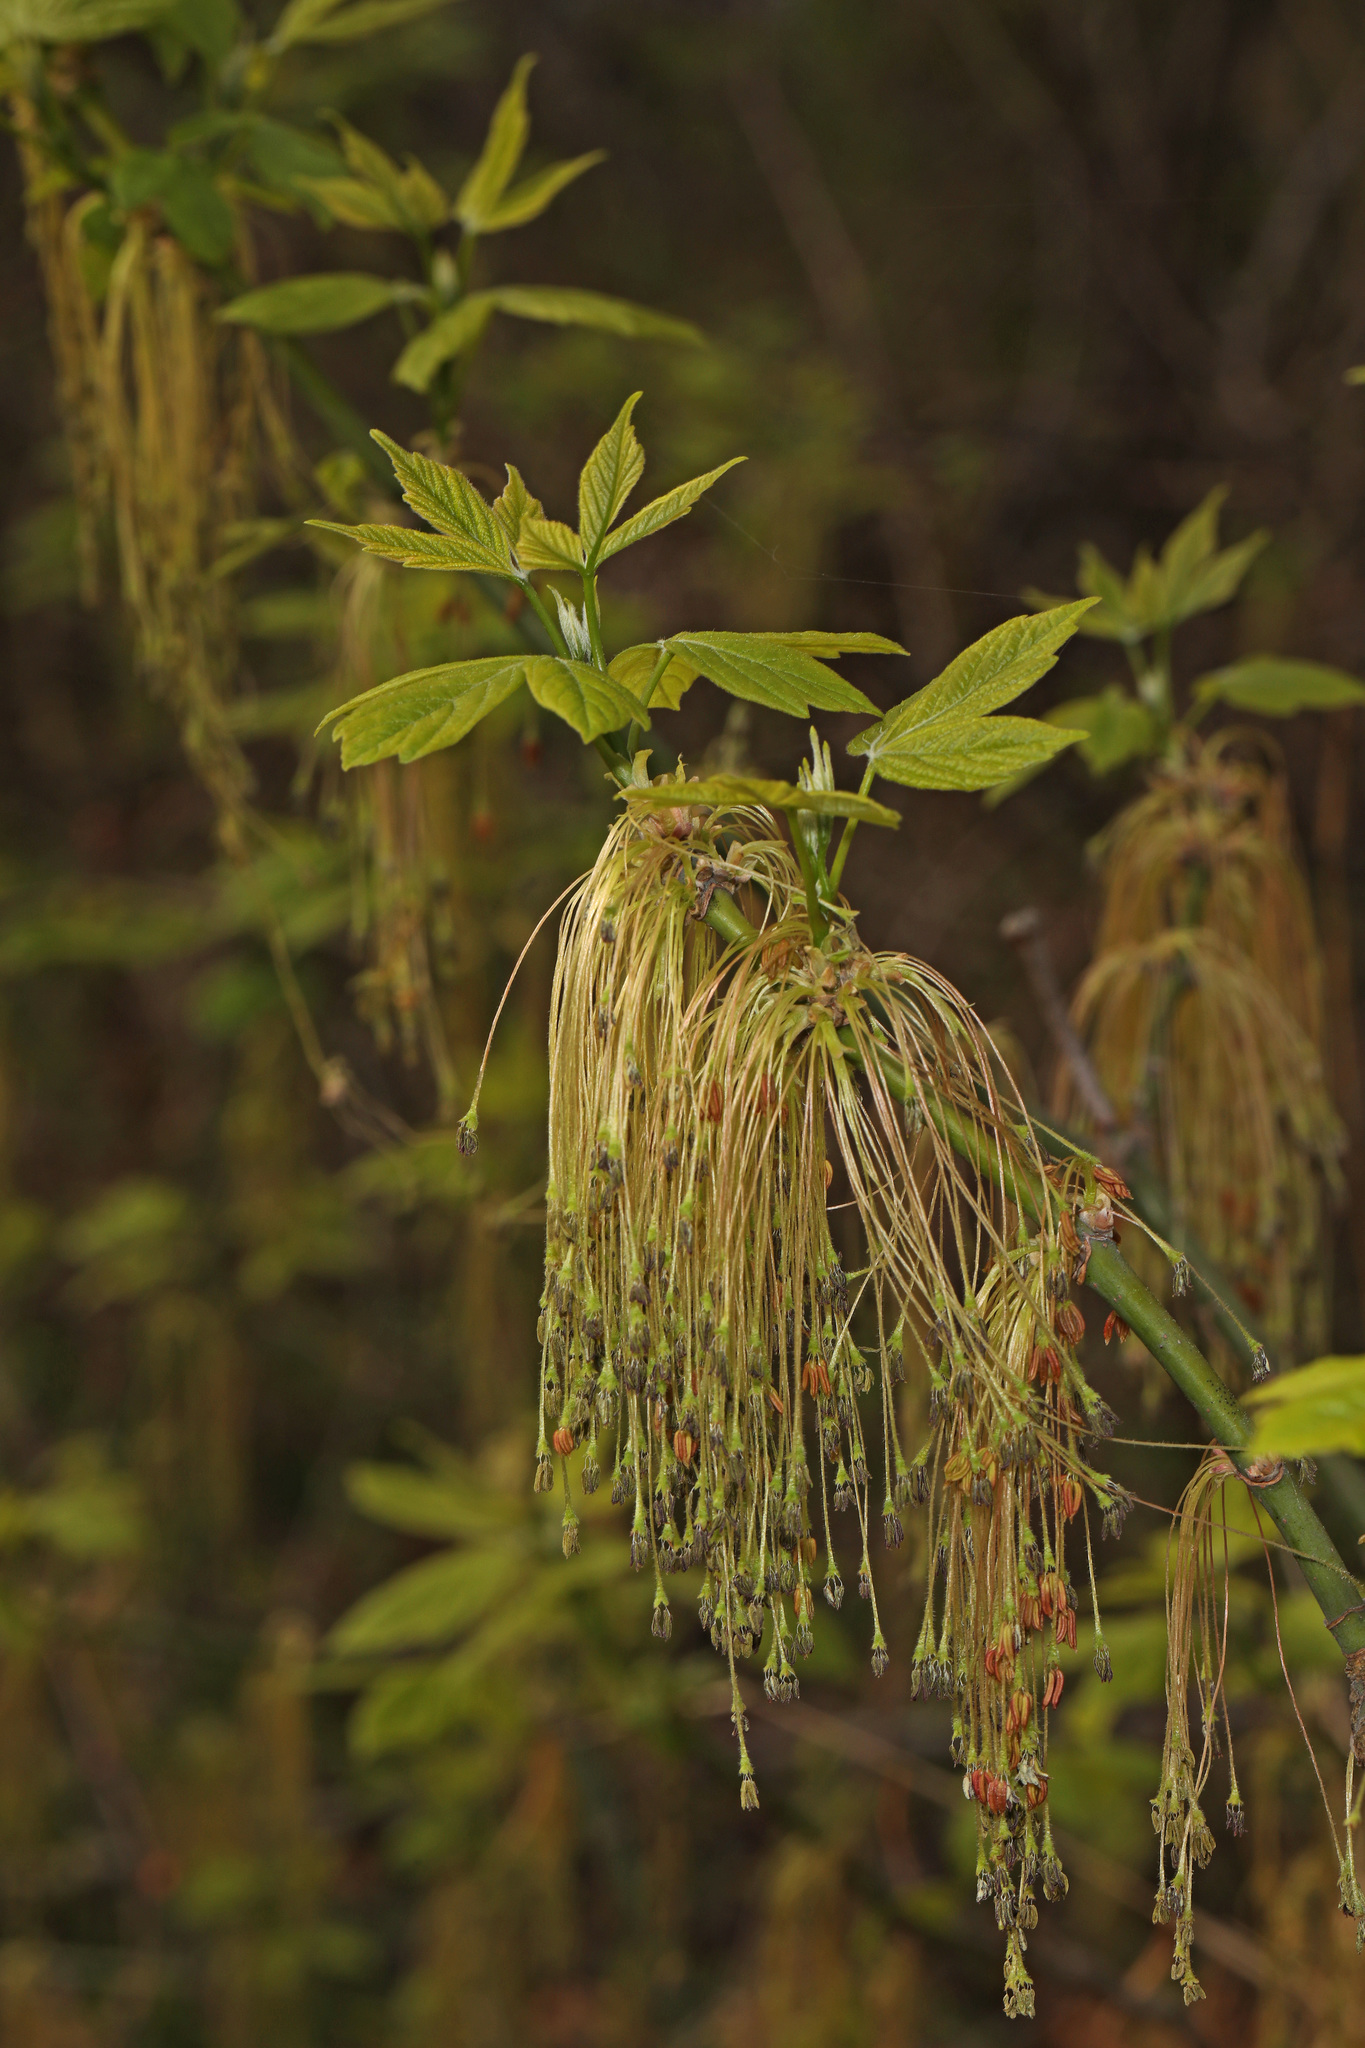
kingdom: Plantae
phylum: Tracheophyta
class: Magnoliopsida
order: Sapindales
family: Sapindaceae
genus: Acer
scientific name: Acer negundo
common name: Ashleaf maple
